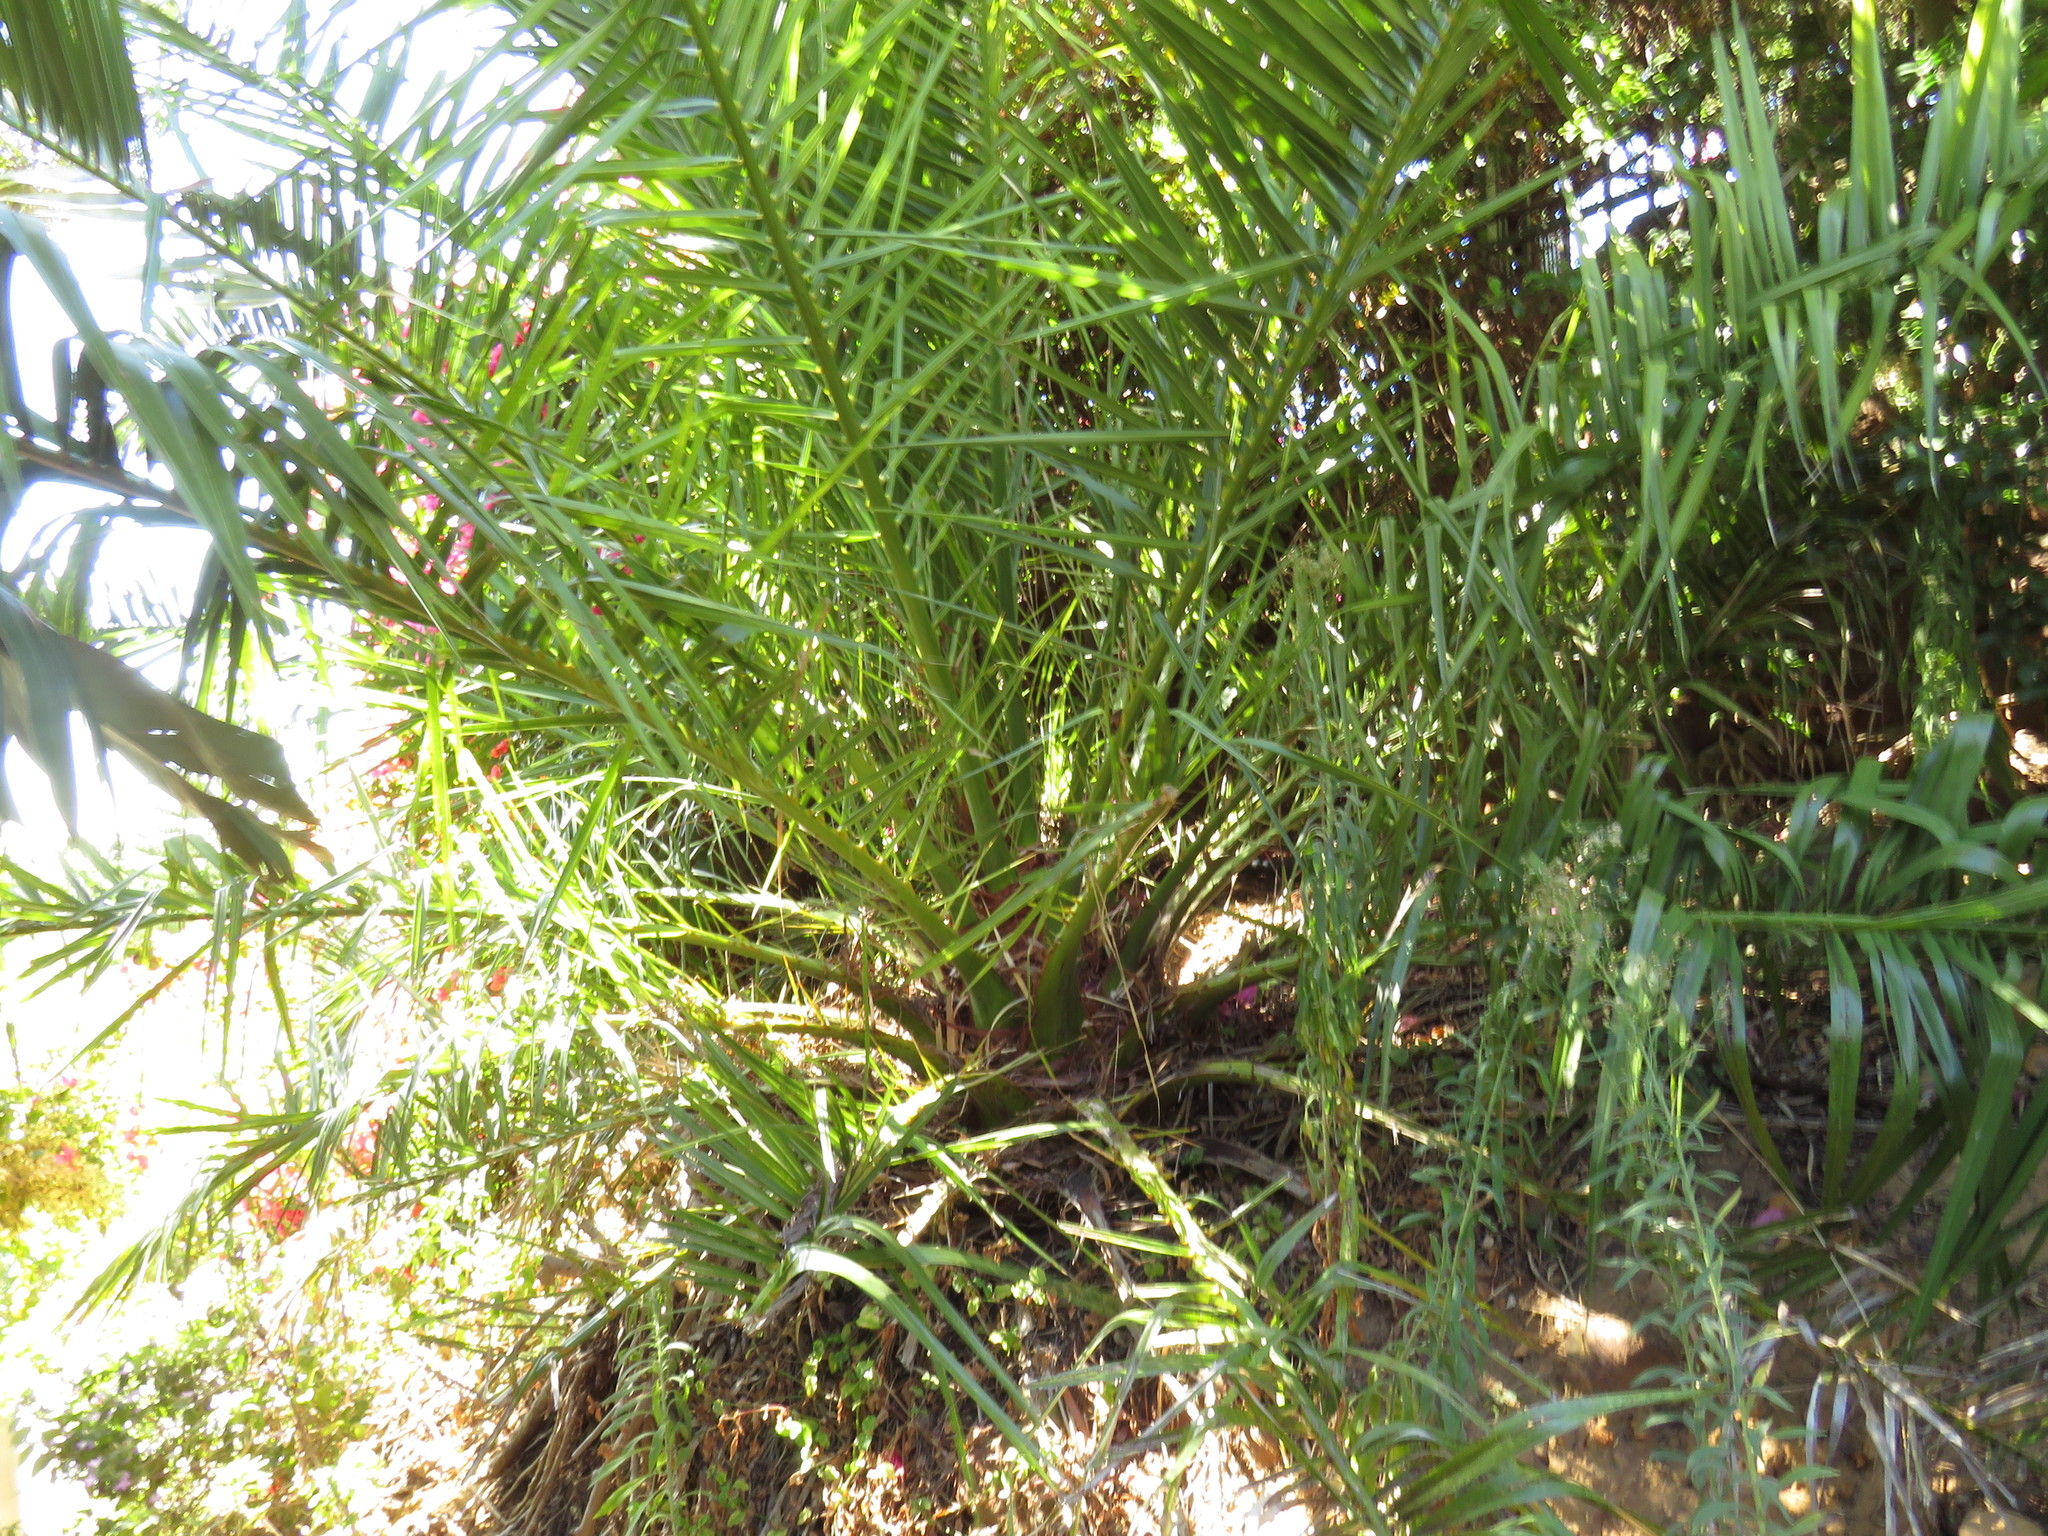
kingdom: Plantae
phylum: Tracheophyta
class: Liliopsida
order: Arecales
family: Arecaceae
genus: Phoenix
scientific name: Phoenix canariensis
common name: Canary island date palm
